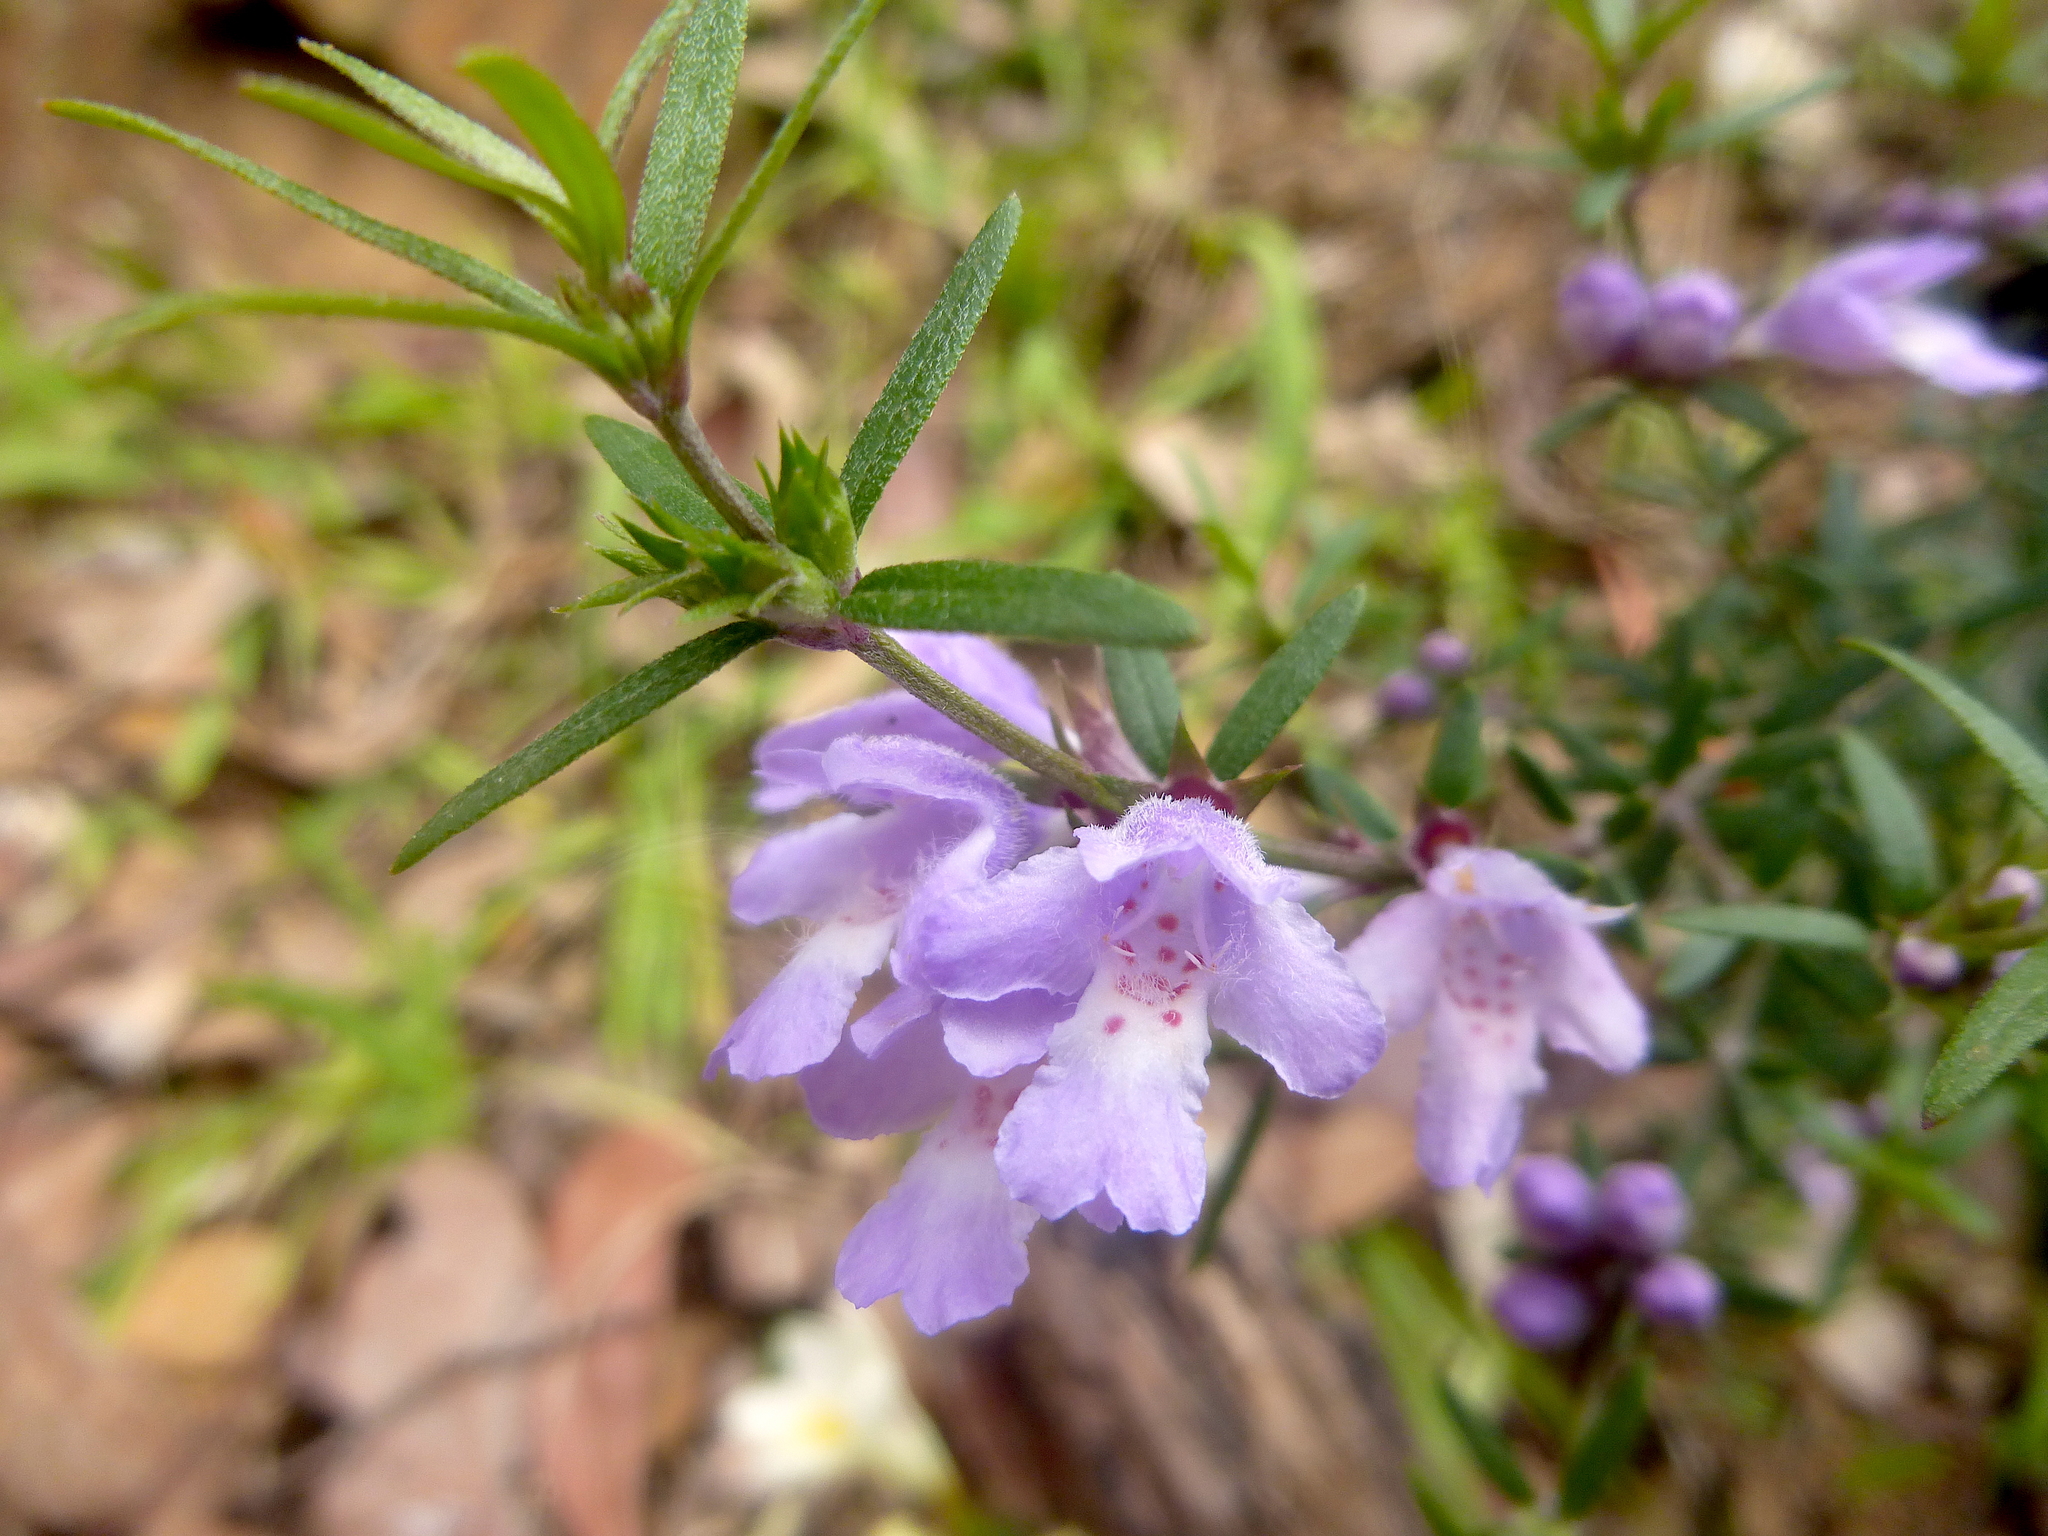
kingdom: Plantae
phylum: Tracheophyta
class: Magnoliopsida
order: Lamiales
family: Lamiaceae
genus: Westringia
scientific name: Westringia glabra
